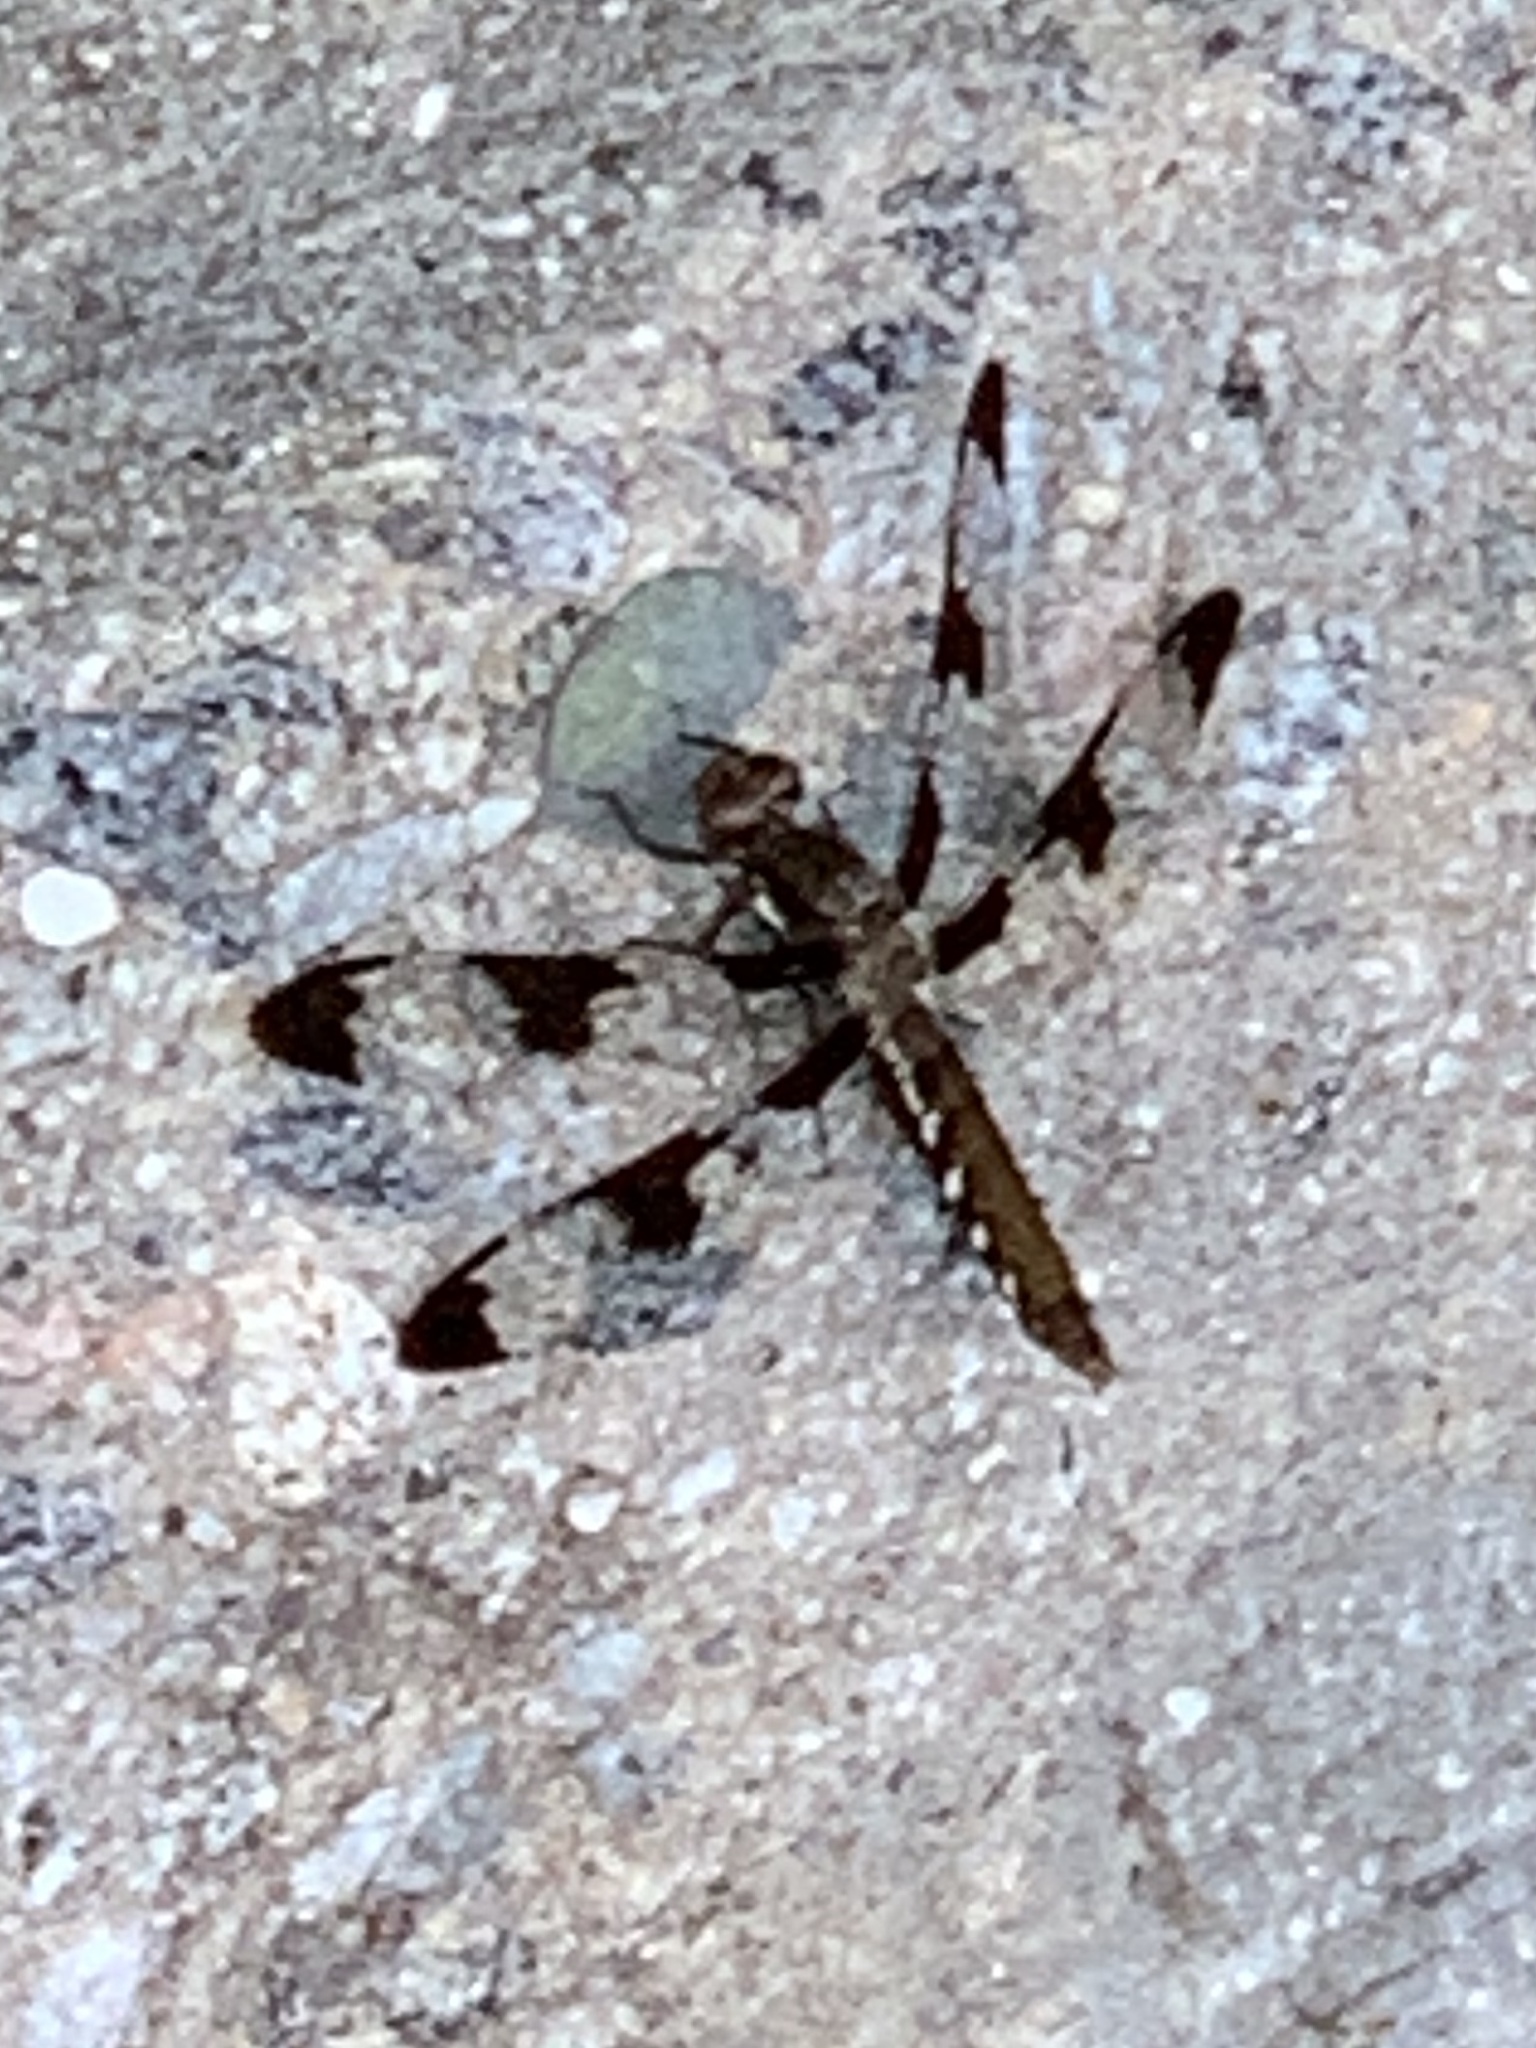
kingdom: Animalia
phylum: Arthropoda
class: Insecta
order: Odonata
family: Libellulidae
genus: Plathemis
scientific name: Plathemis lydia
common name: Common whitetail
